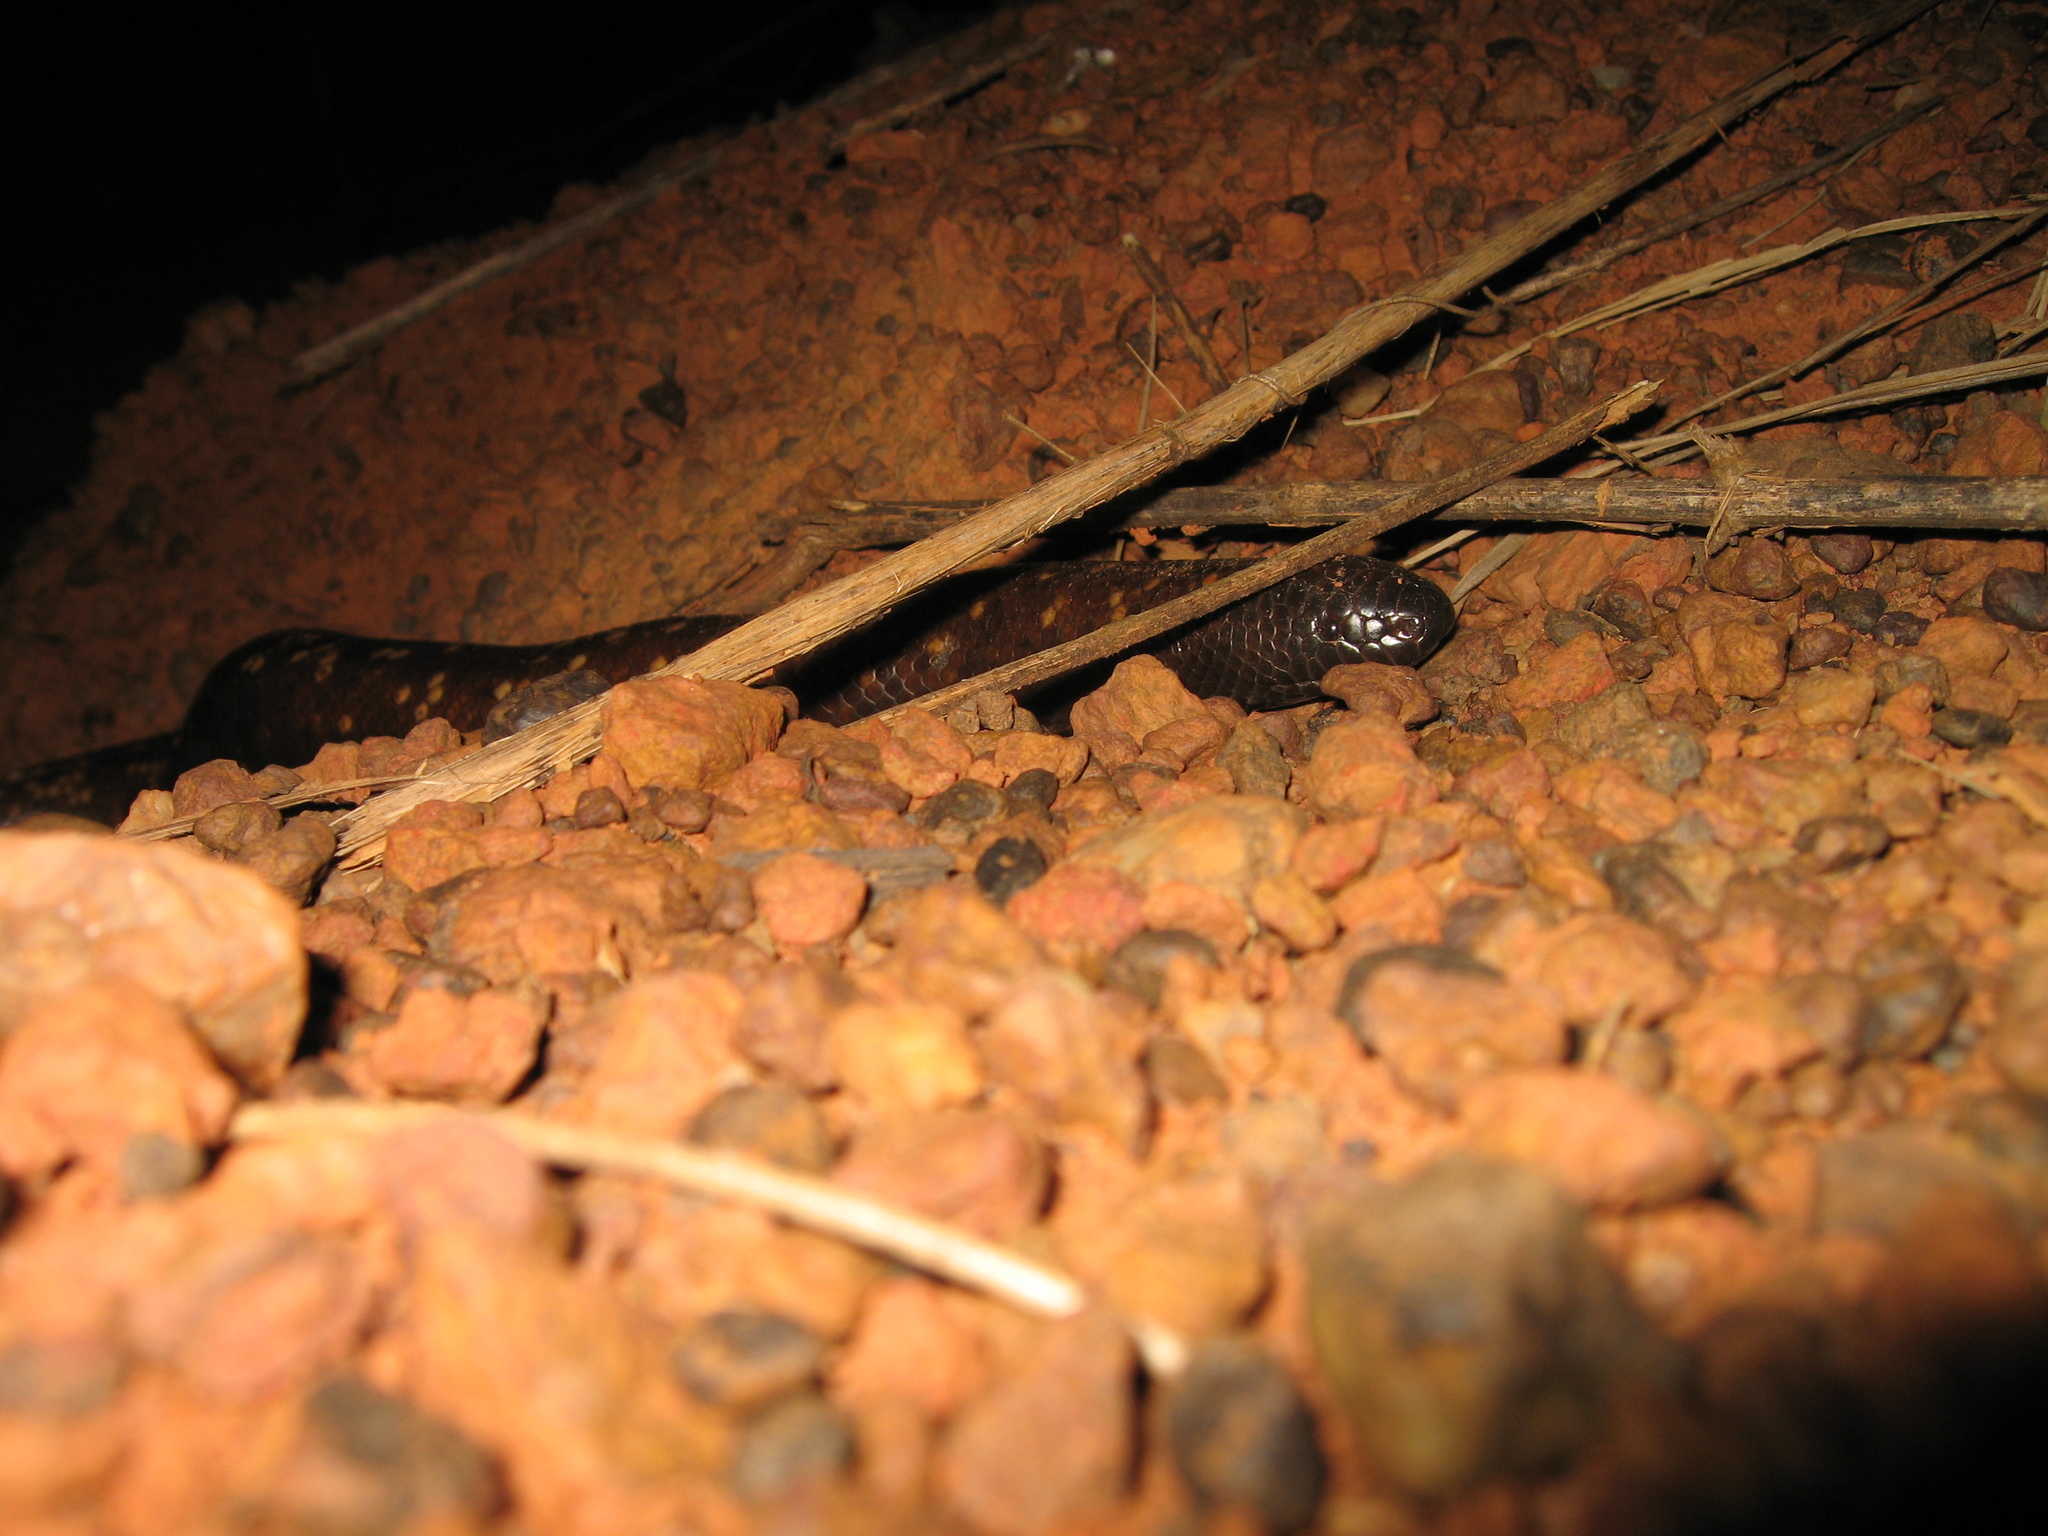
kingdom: Animalia
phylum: Chordata
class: Squamata
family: Boidae
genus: Calabaria
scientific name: Calabaria reinhardtii
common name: African burrowing python
